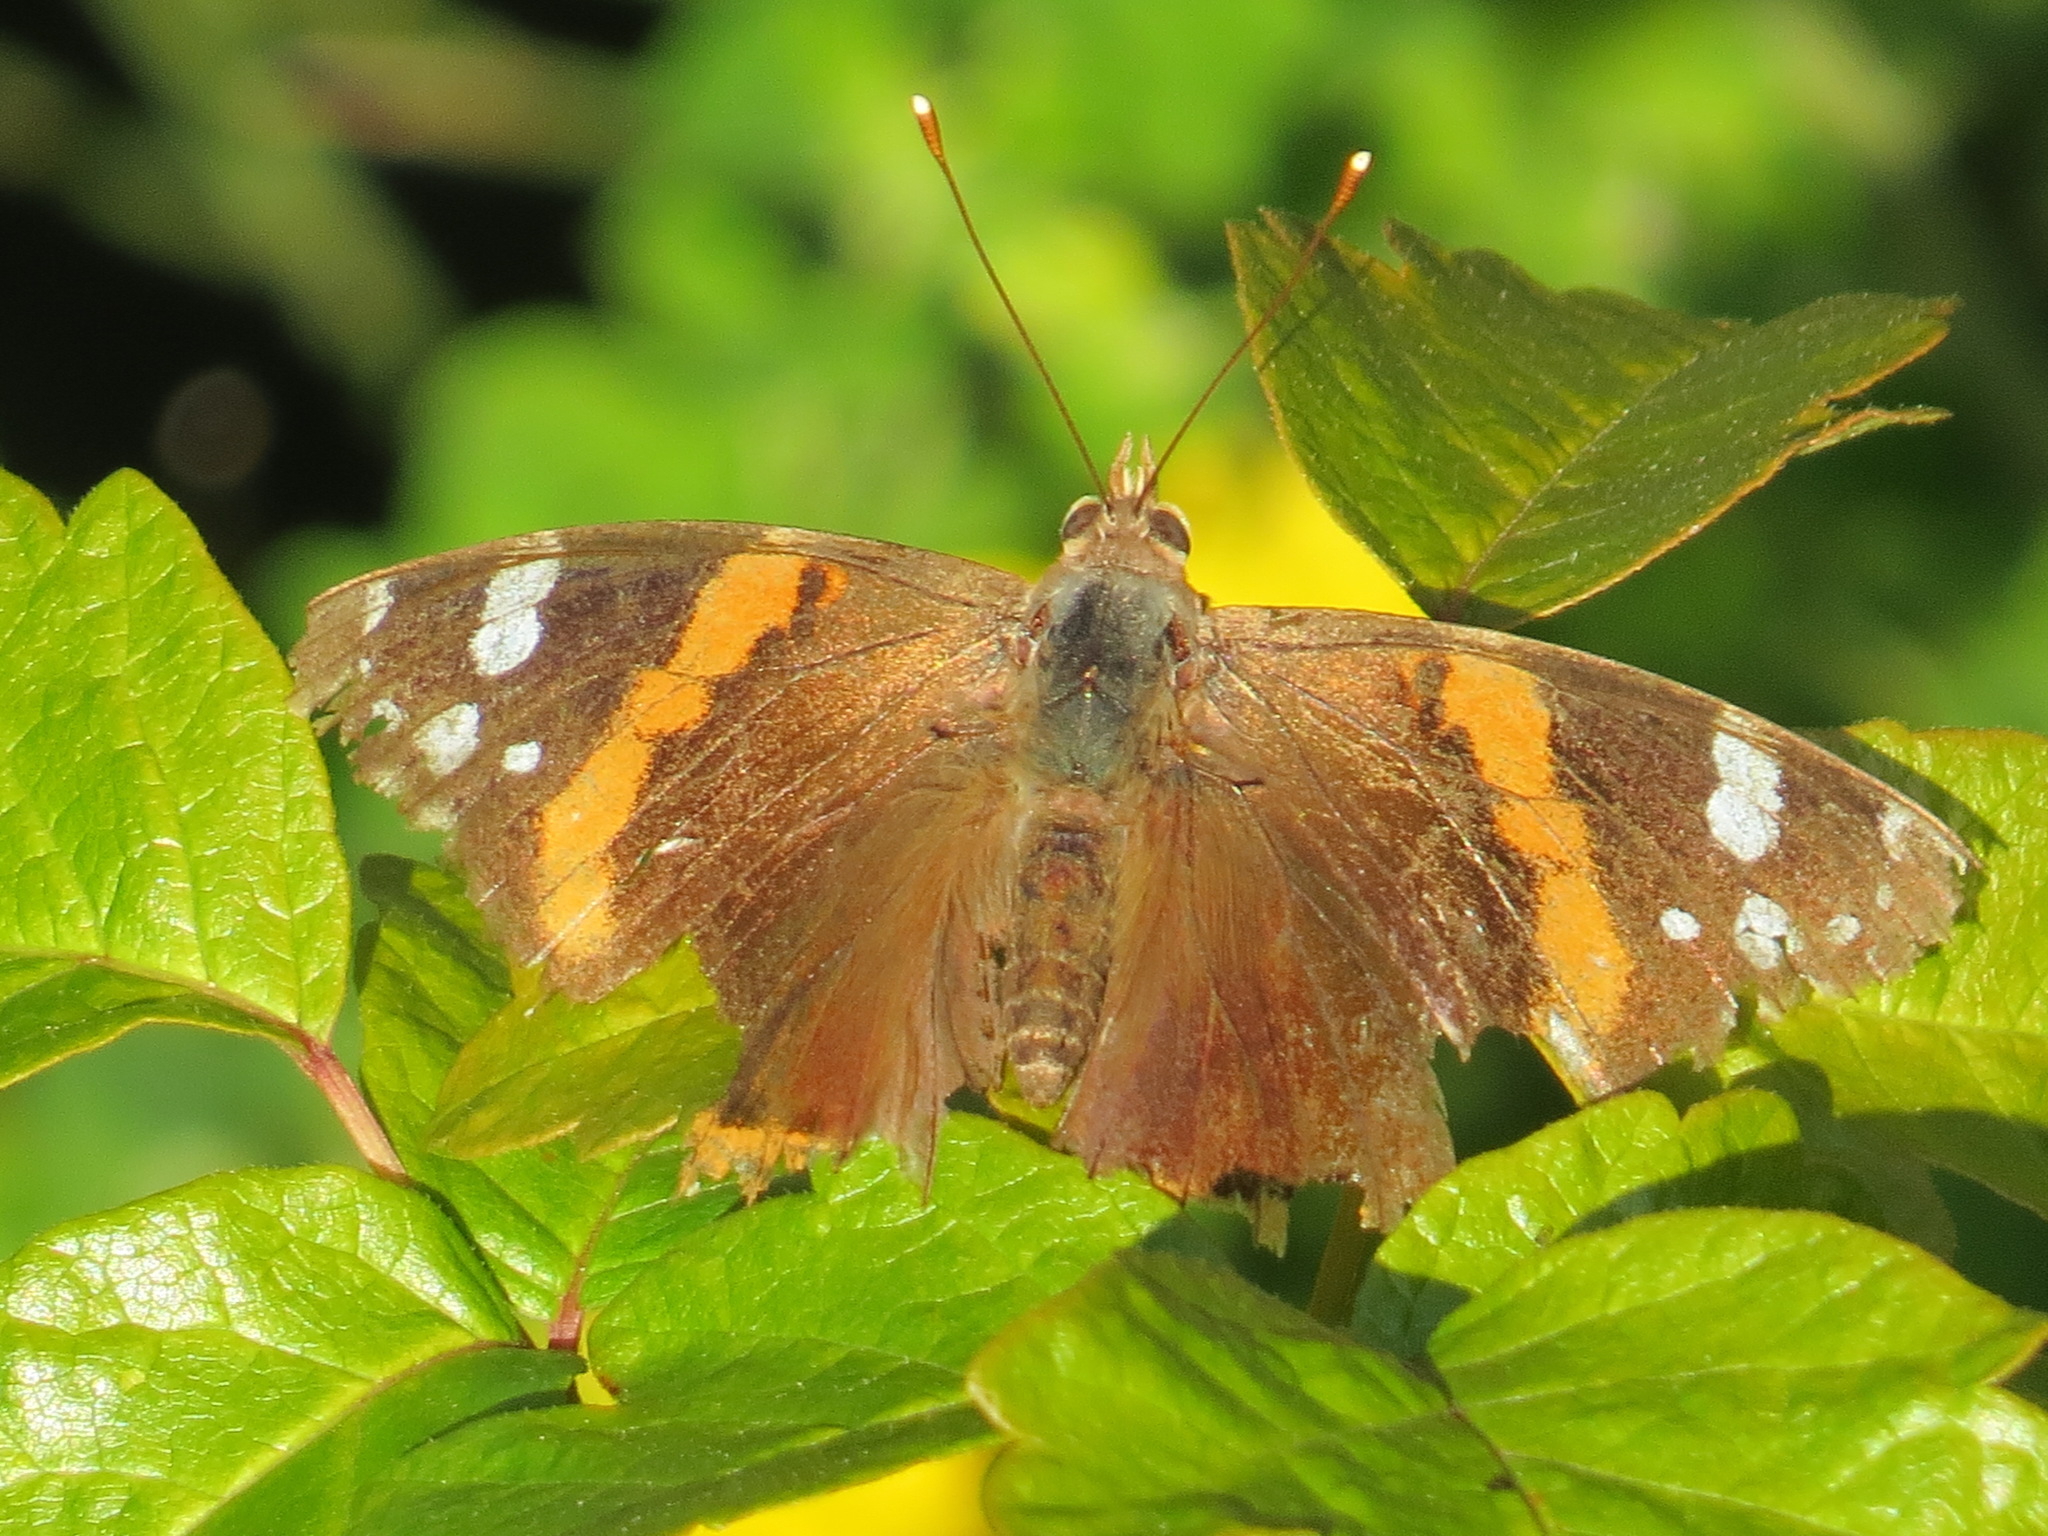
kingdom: Animalia
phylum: Arthropoda
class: Insecta
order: Lepidoptera
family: Nymphalidae
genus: Vanessa
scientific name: Vanessa atalanta
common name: Red admiral
